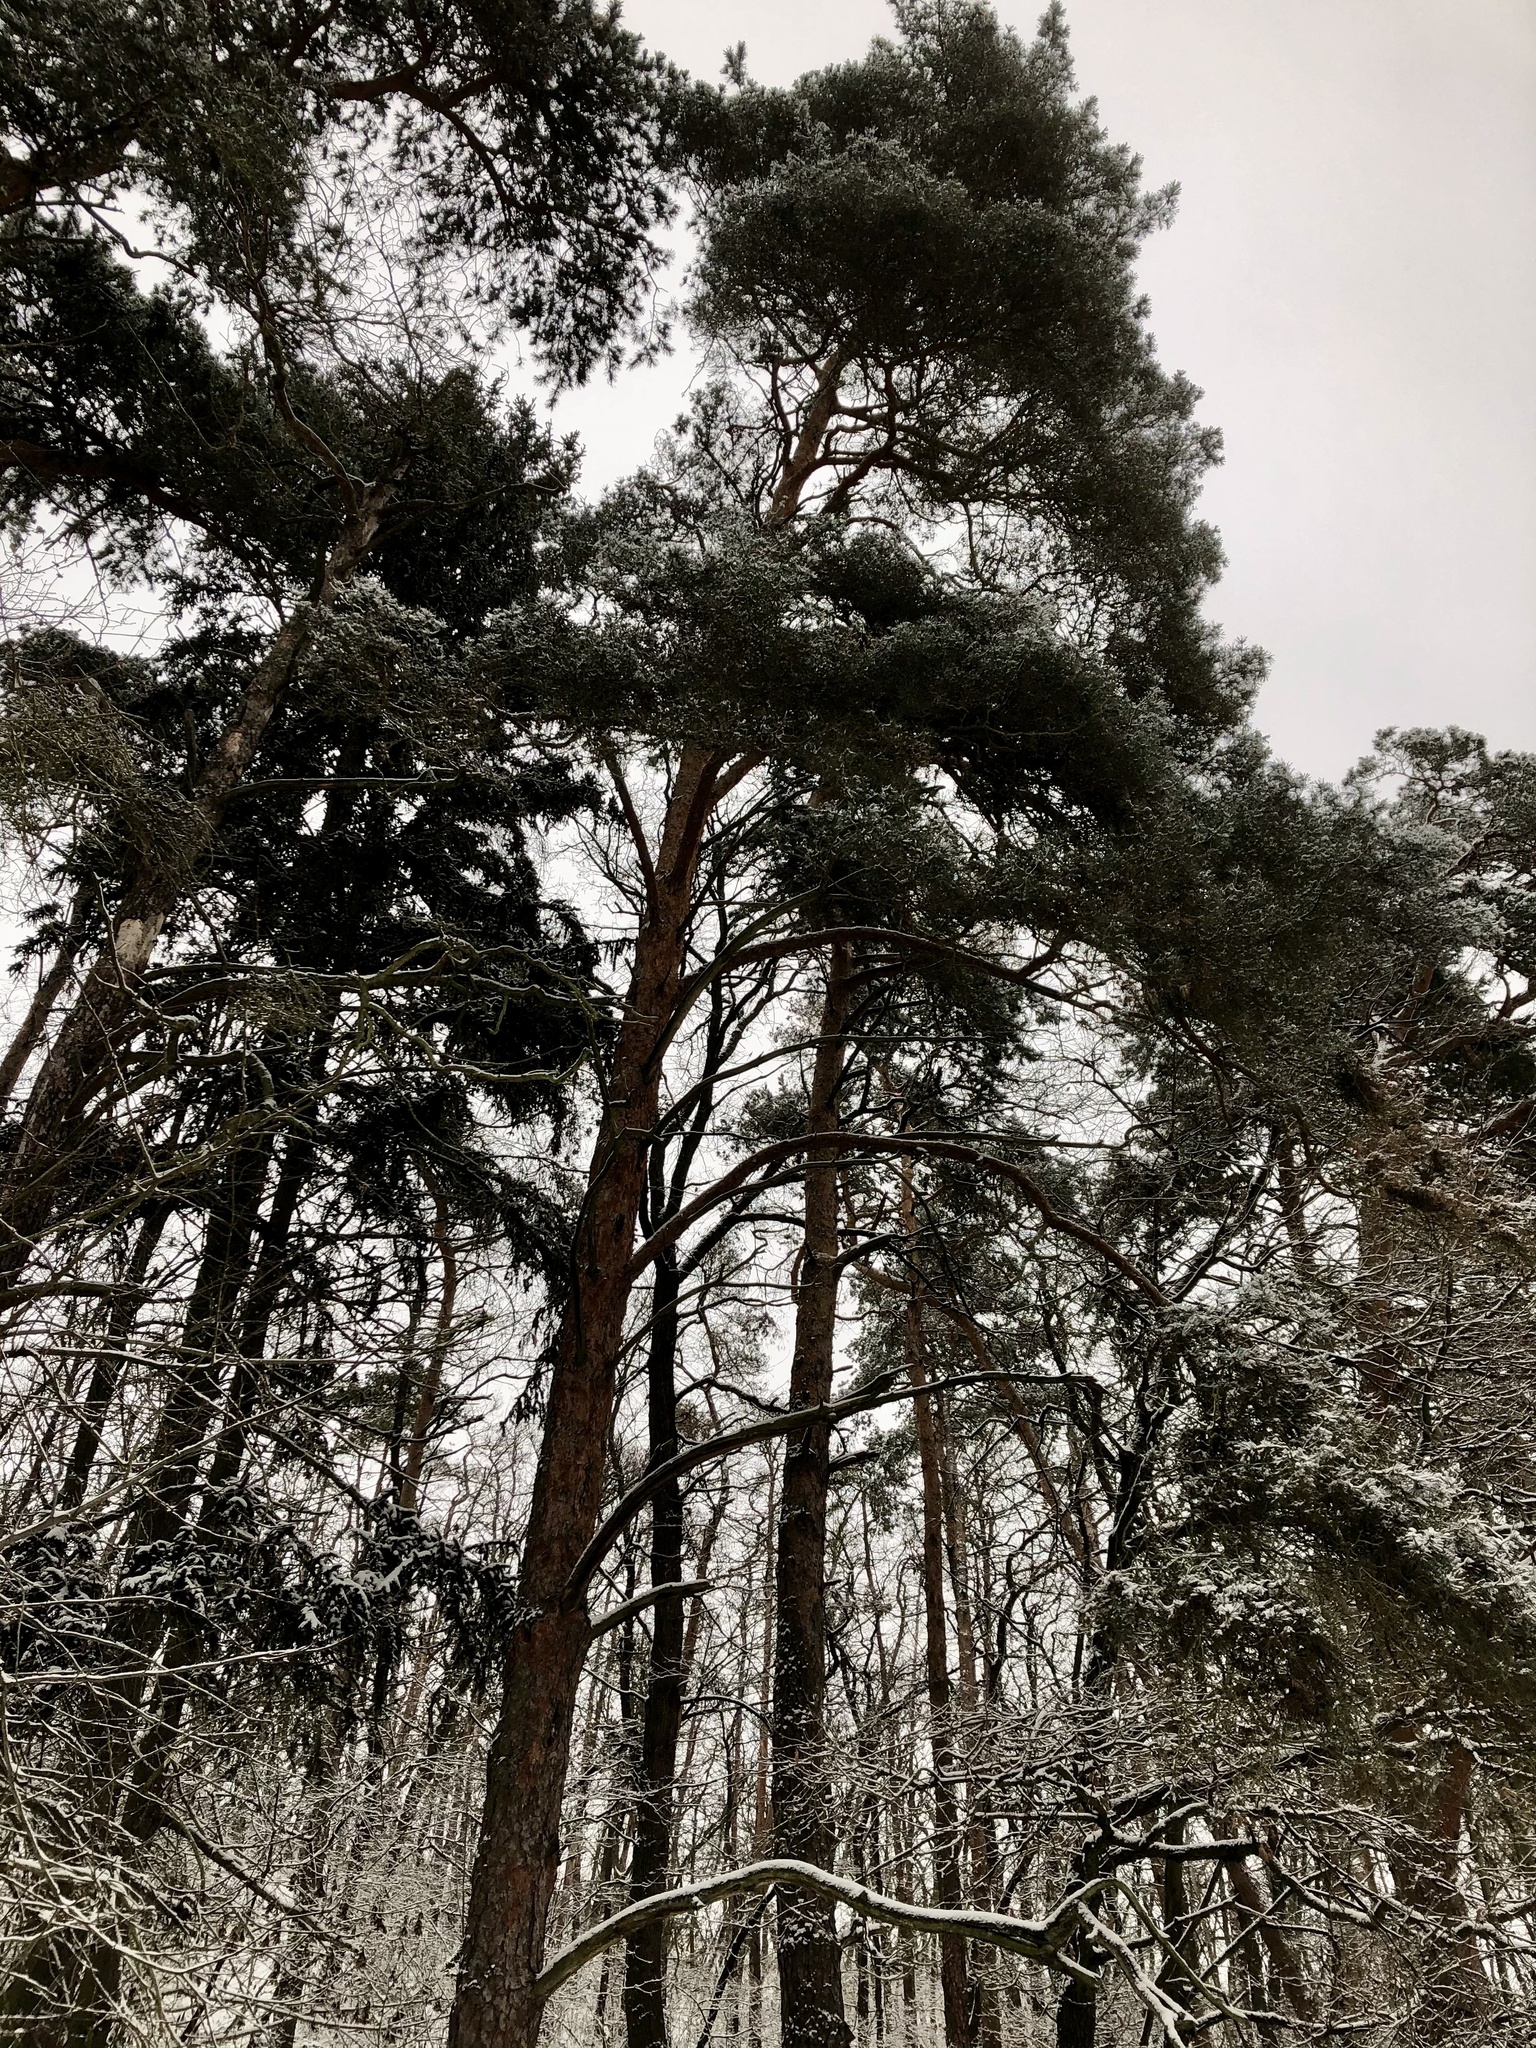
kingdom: Plantae
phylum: Tracheophyta
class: Pinopsida
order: Pinales
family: Pinaceae
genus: Pinus
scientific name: Pinus sylvestris
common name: Scots pine
